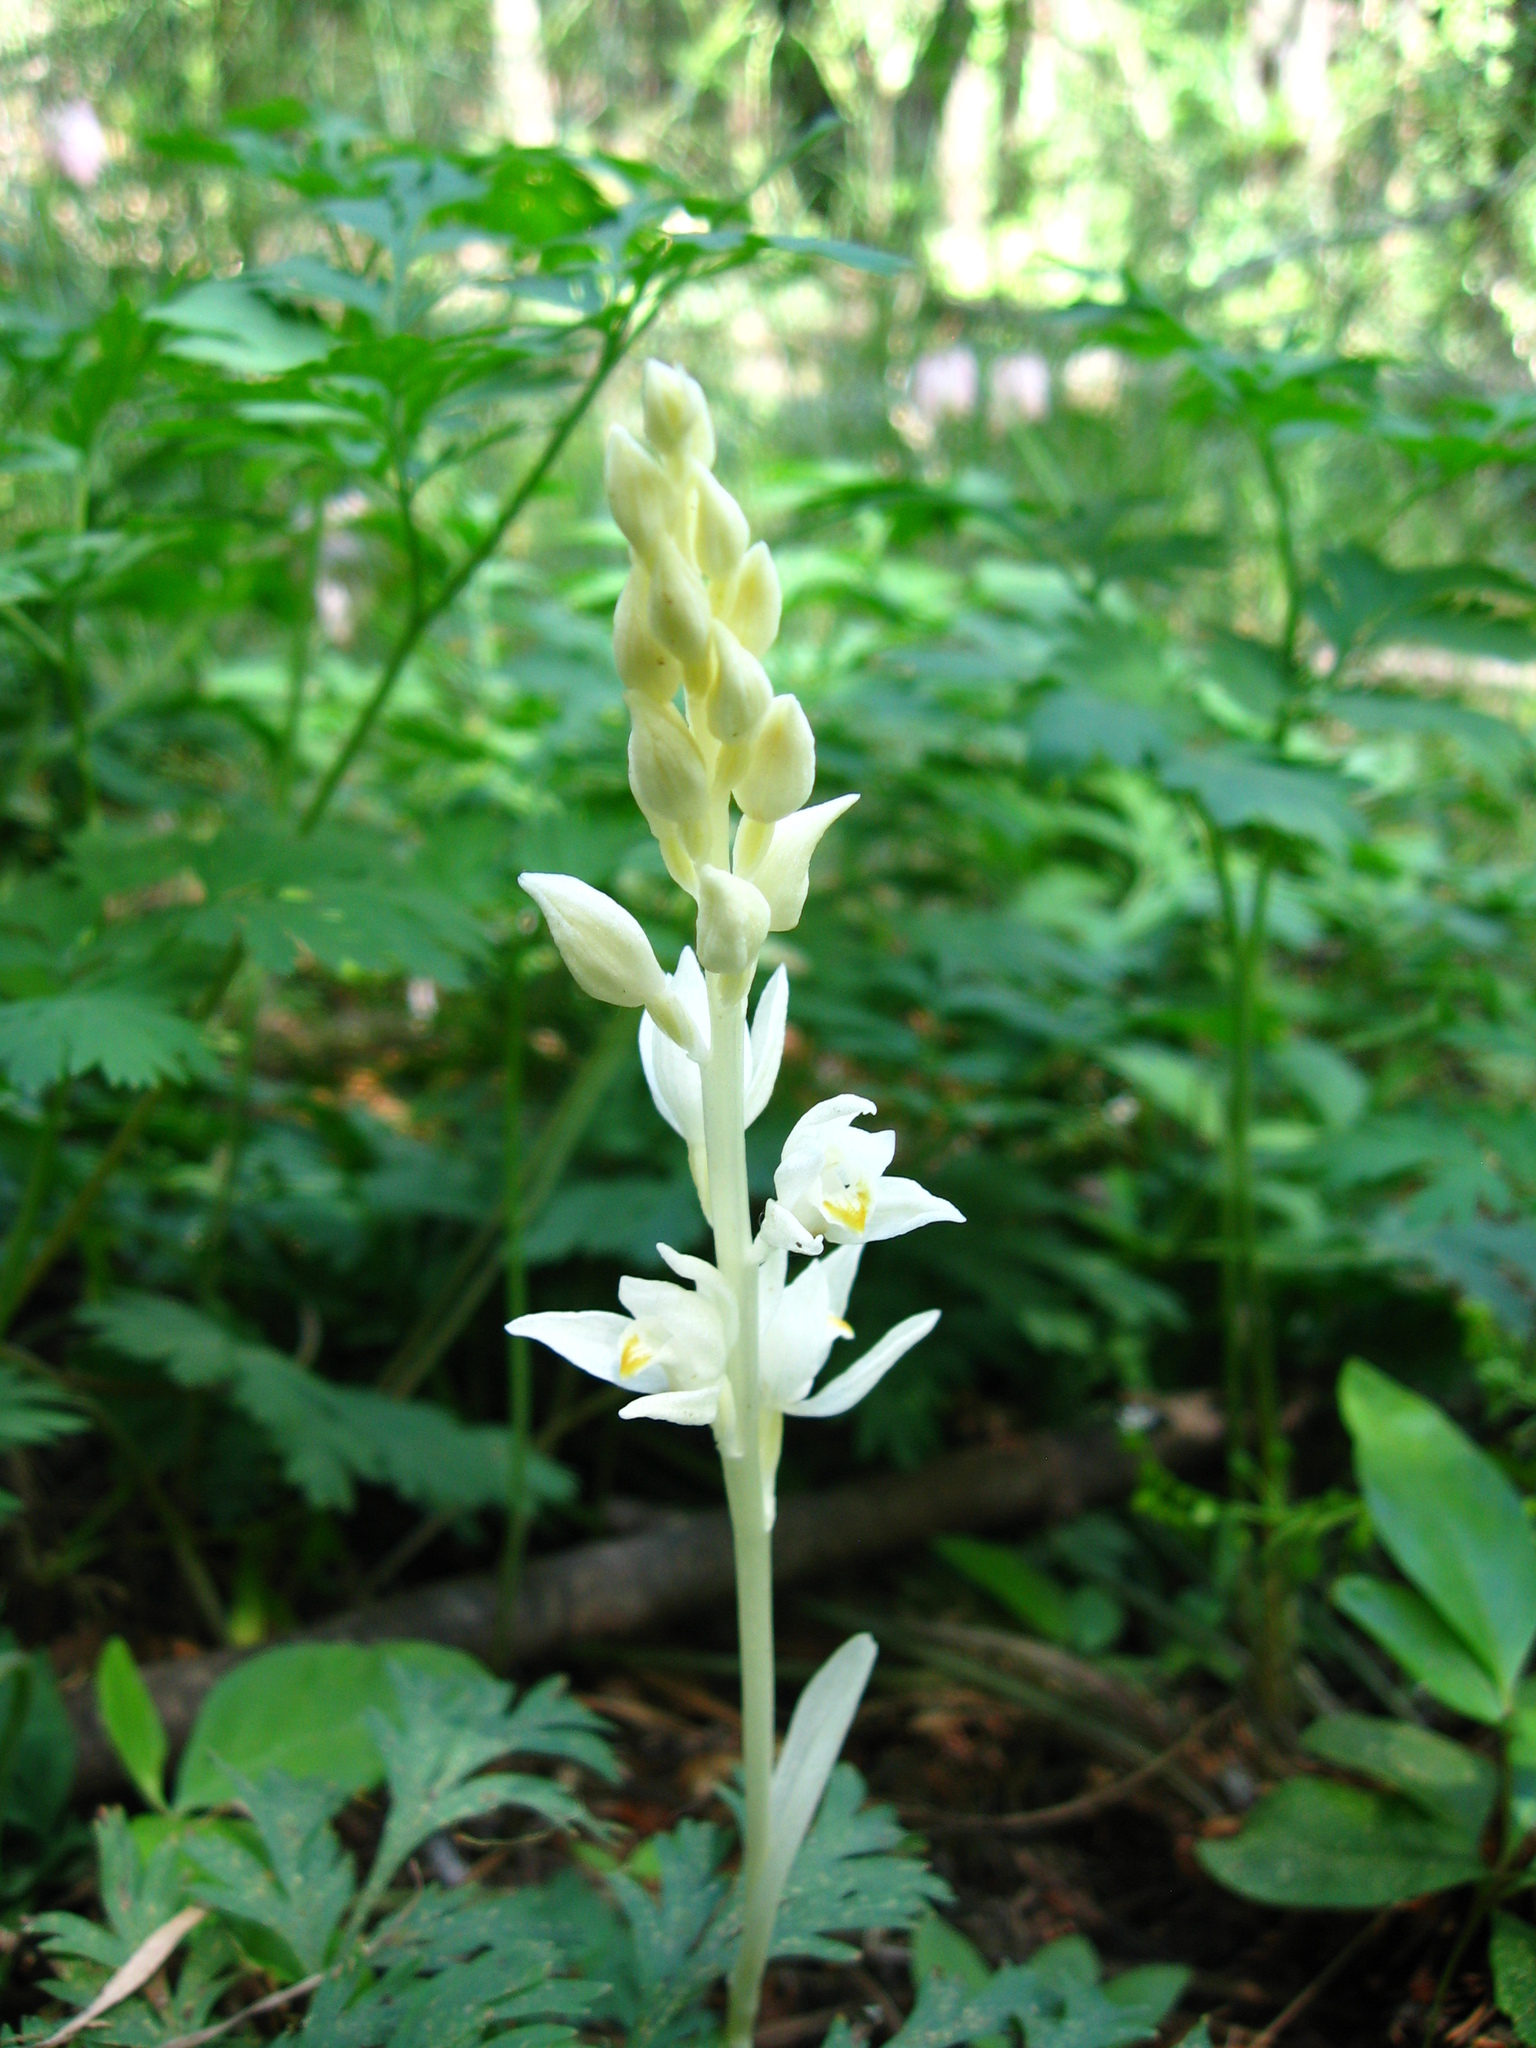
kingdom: Plantae
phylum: Tracheophyta
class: Liliopsida
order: Asparagales
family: Orchidaceae
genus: Cephalanthera
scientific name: Cephalanthera austiniae
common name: Phantom orchid
